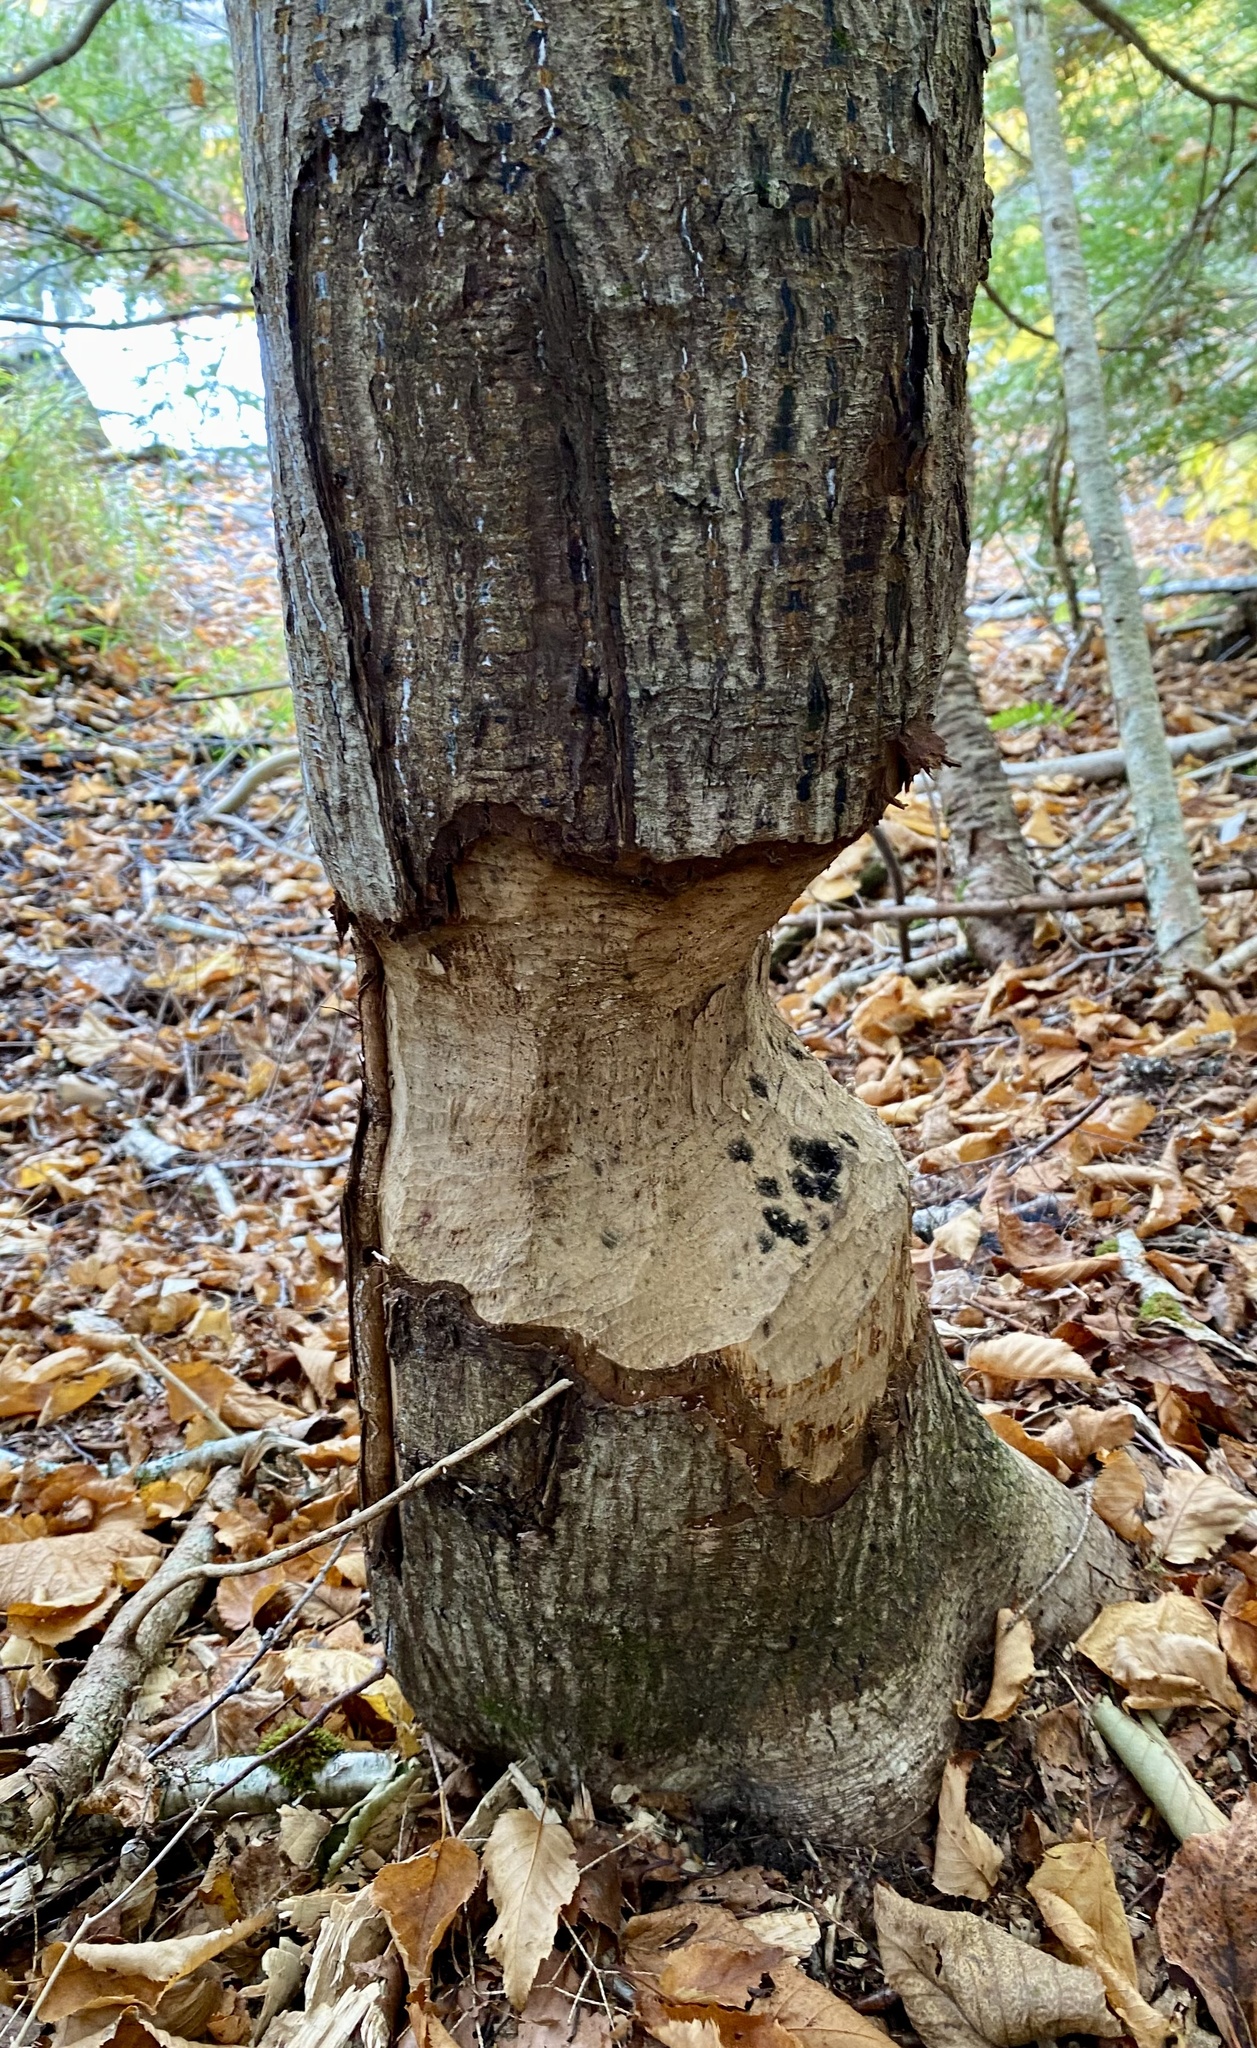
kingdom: Animalia
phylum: Chordata
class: Mammalia
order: Rodentia
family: Castoridae
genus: Castor
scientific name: Castor canadensis
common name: American beaver
